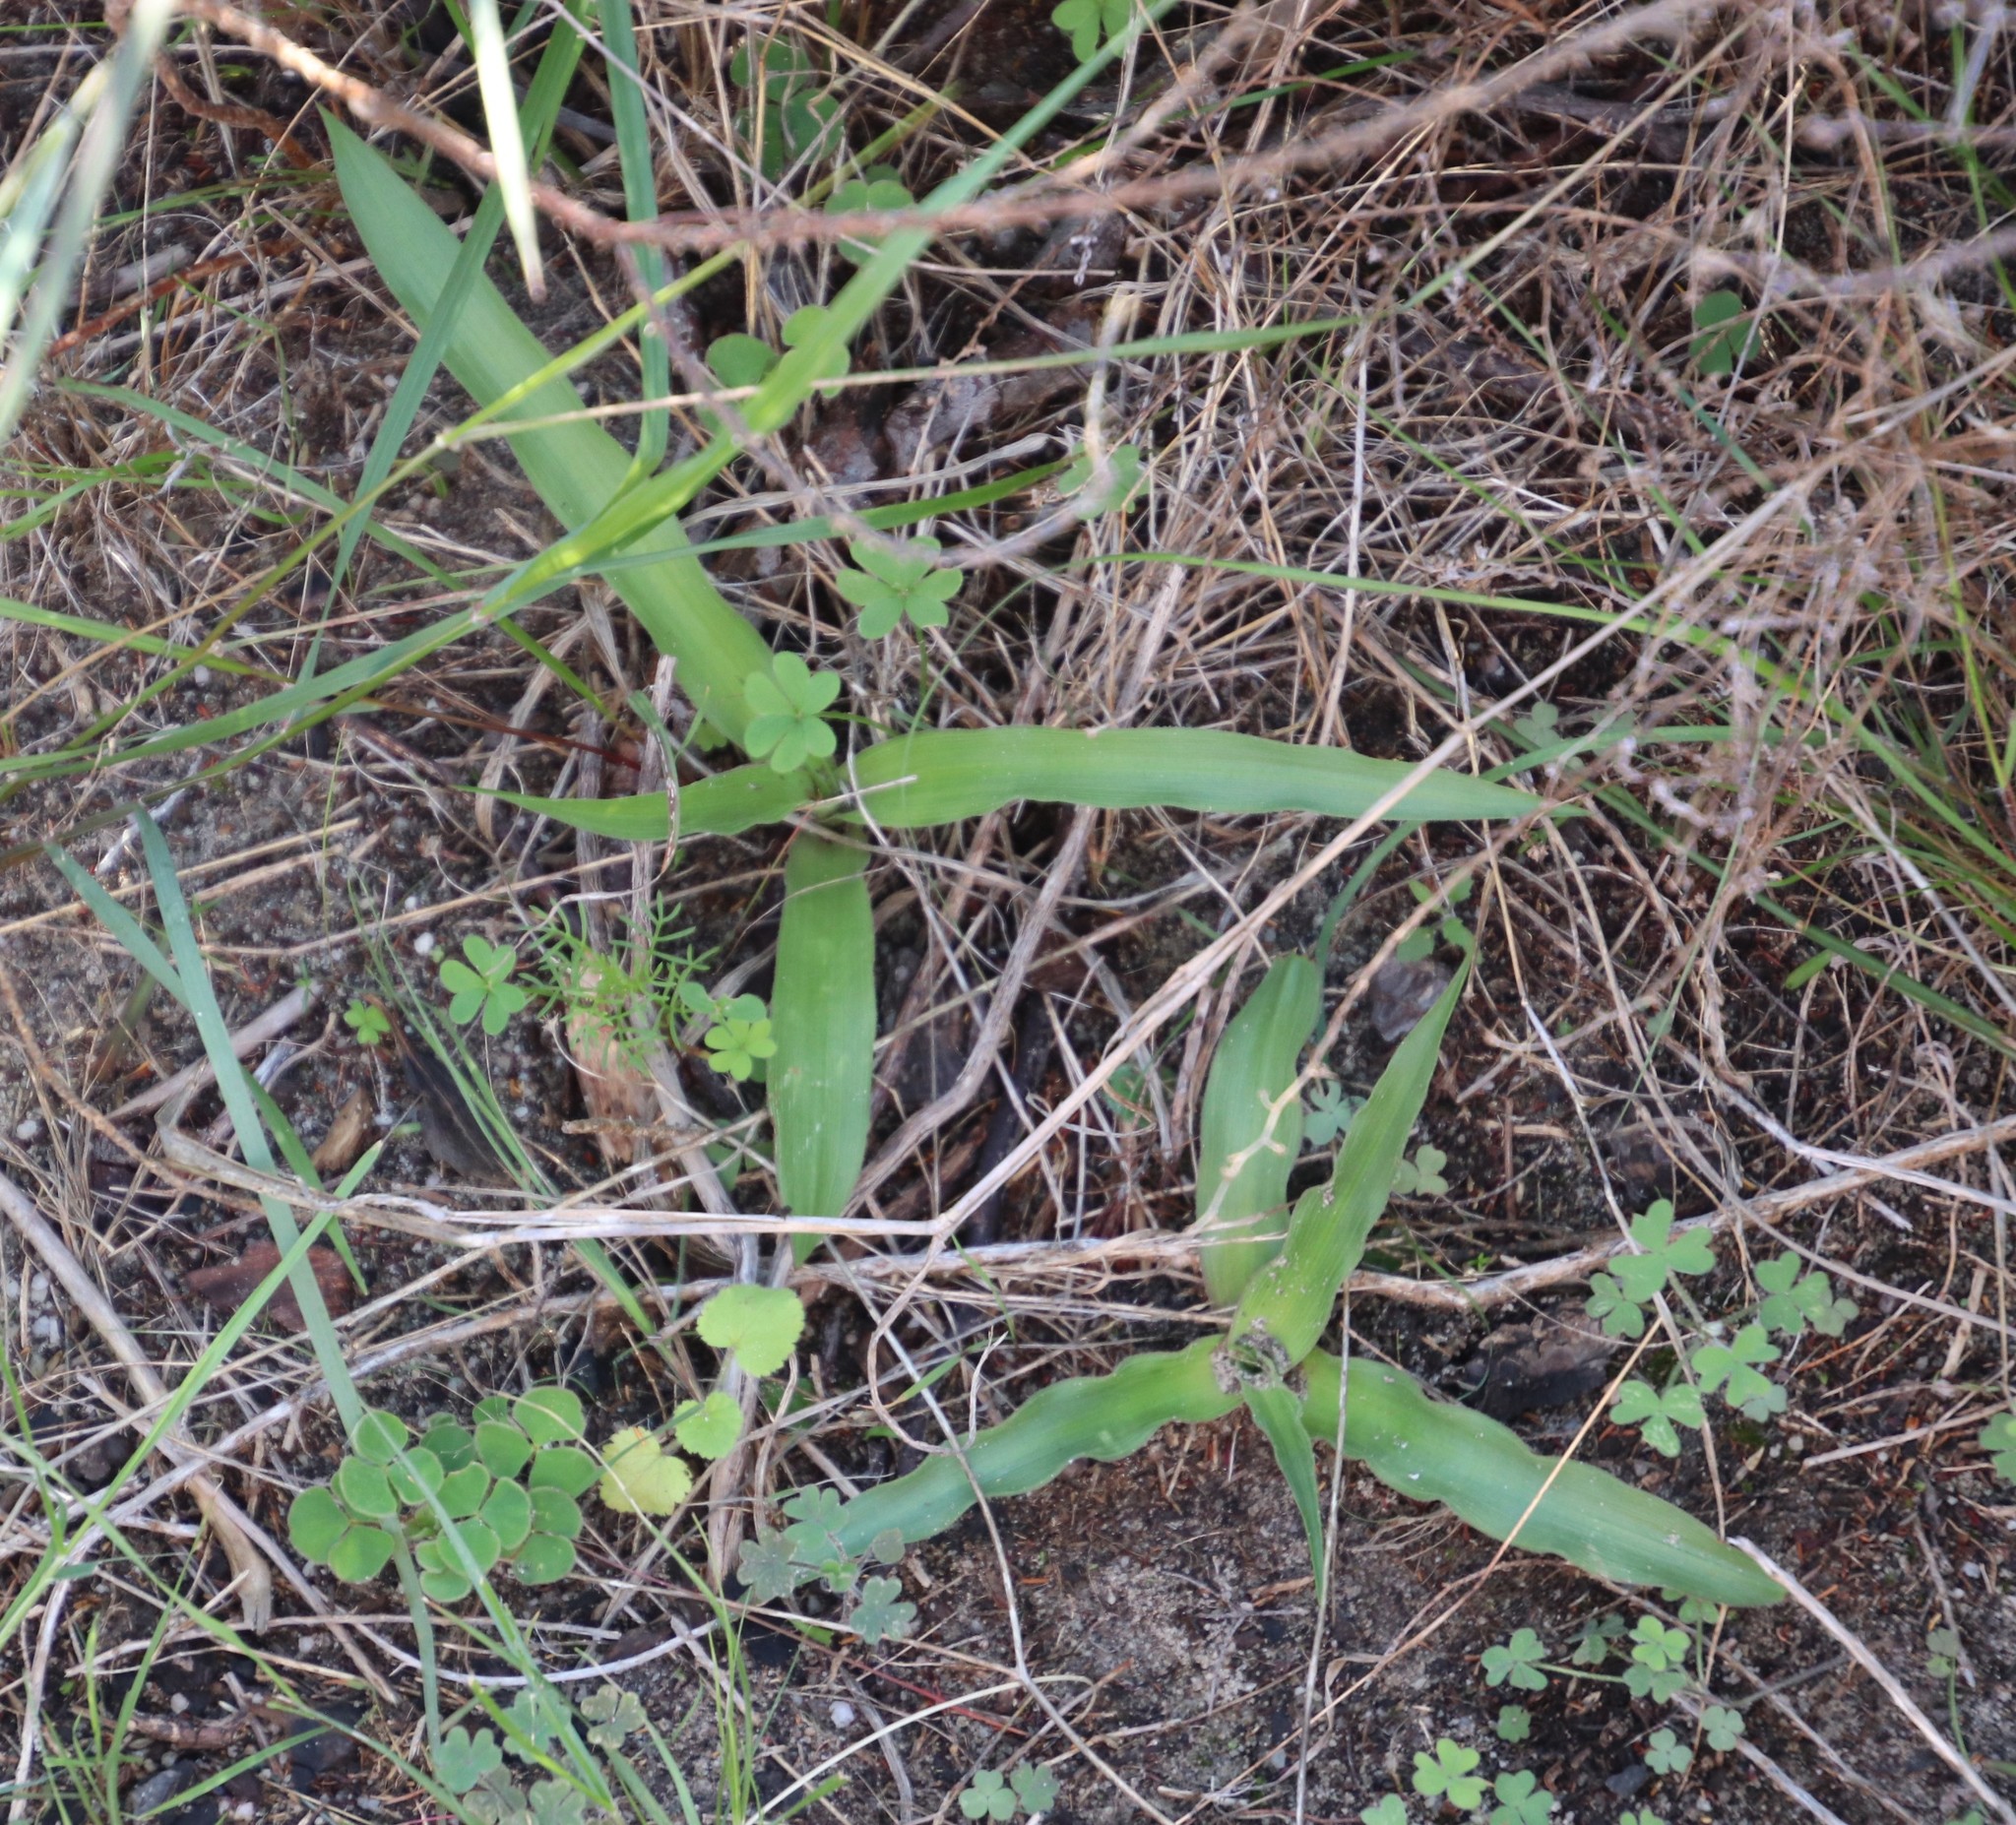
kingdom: Plantae
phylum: Tracheophyta
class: Liliopsida
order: Asparagales
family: Tecophilaeaceae
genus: Cyanella
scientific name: Cyanella hyacinthoides
